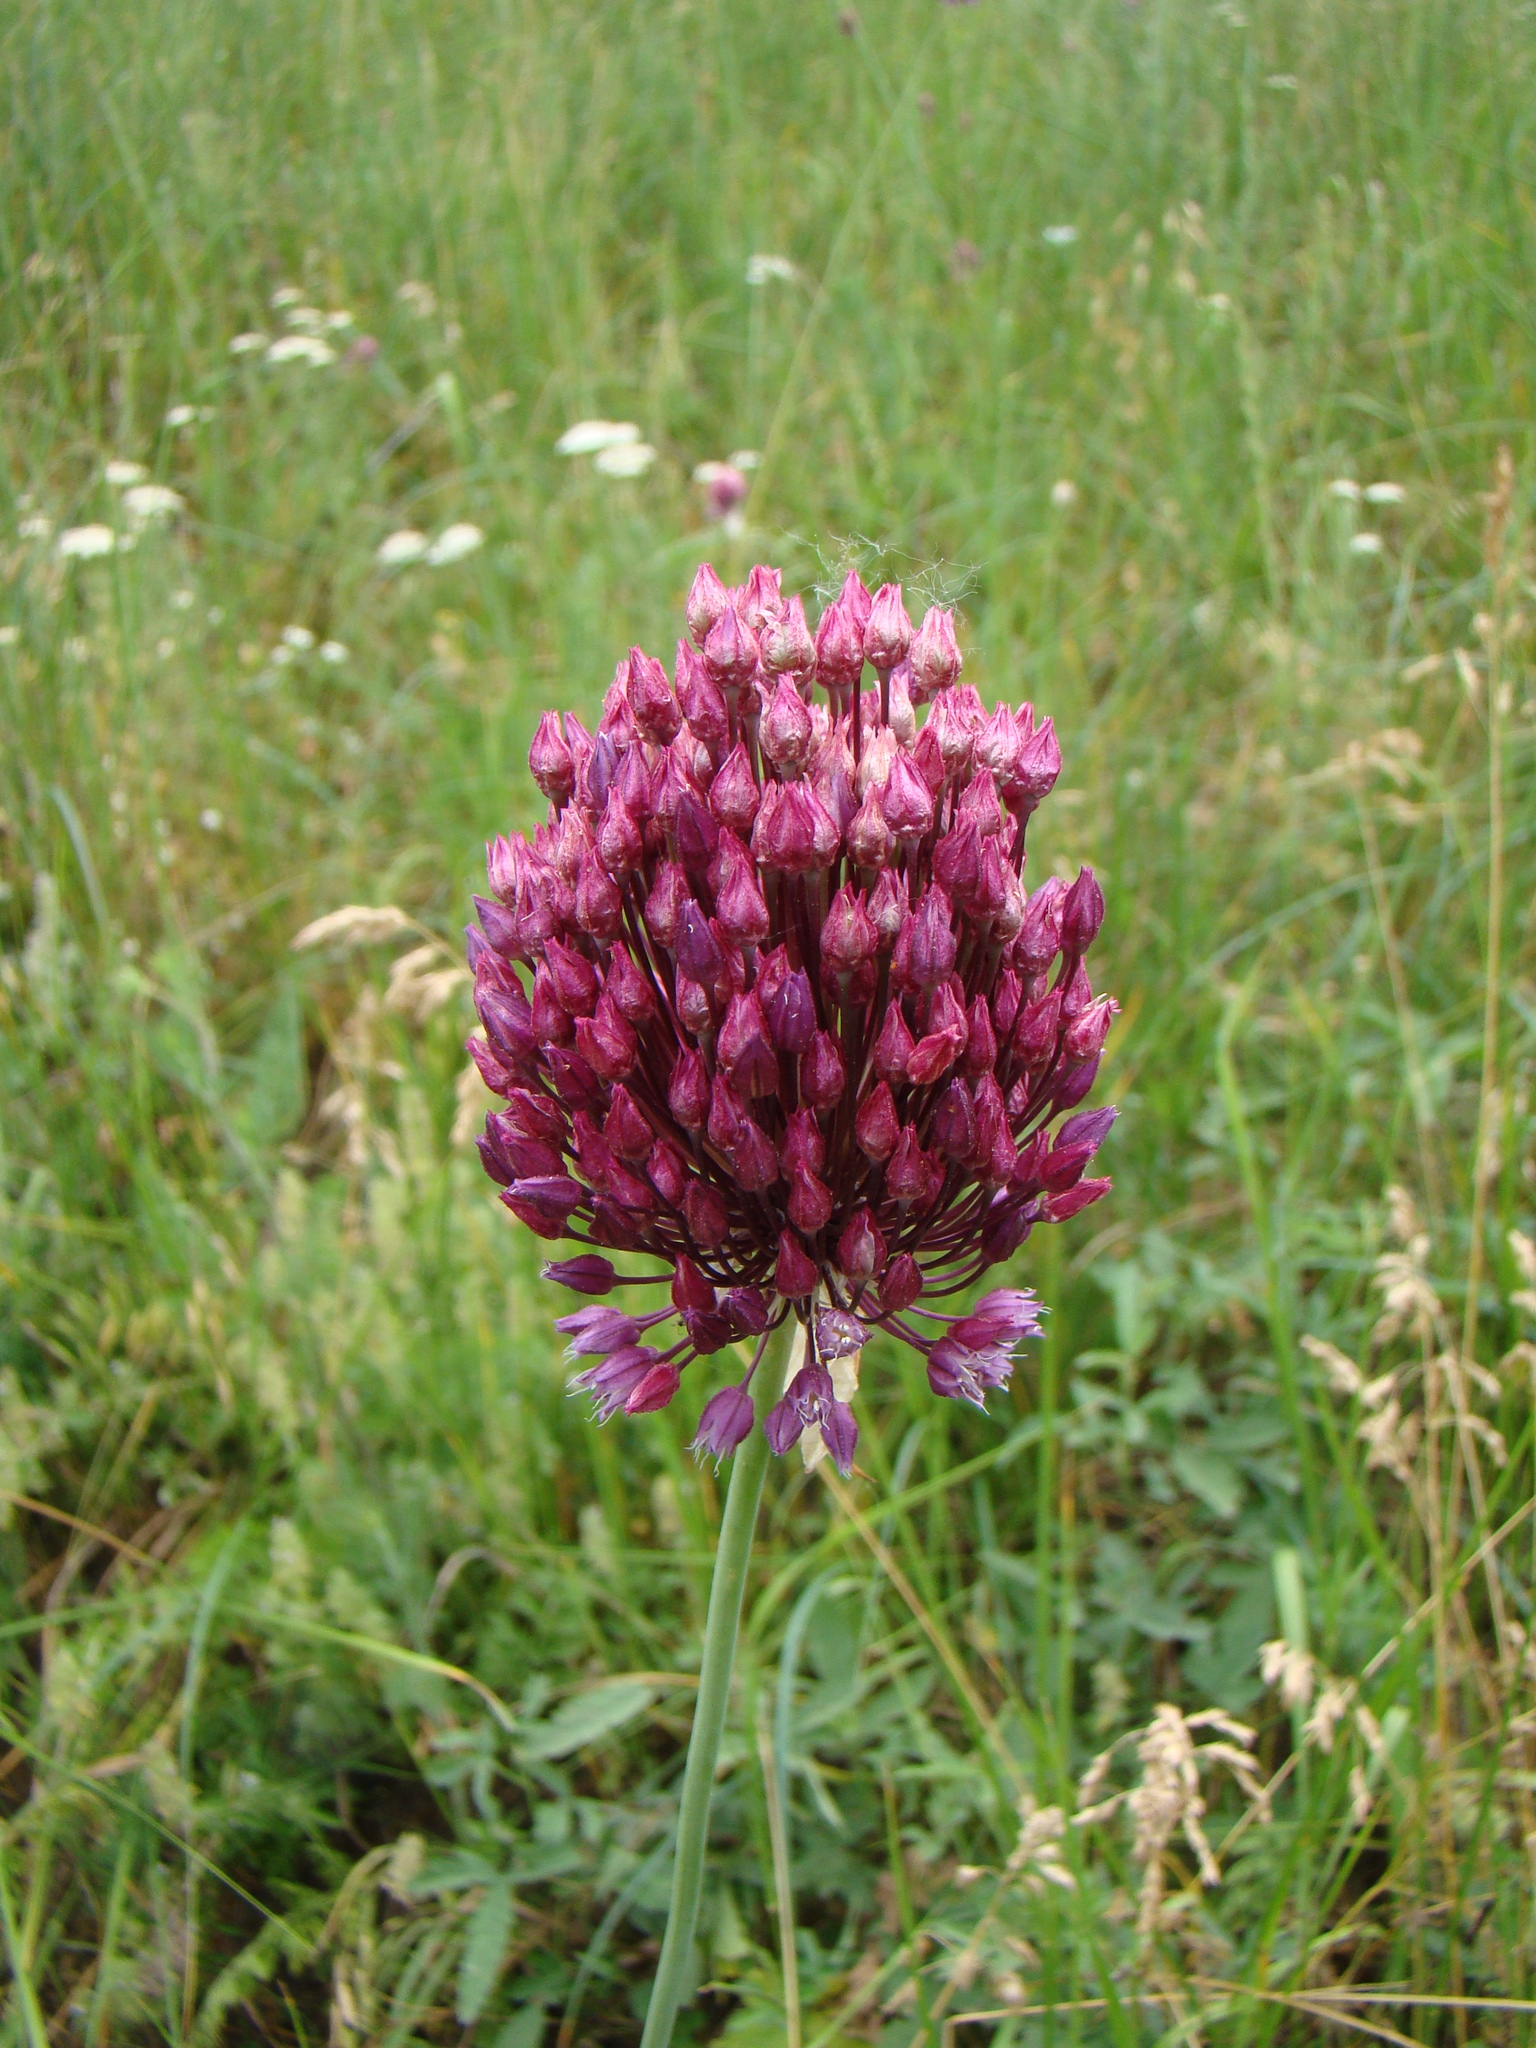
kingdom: Plantae
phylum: Tracheophyta
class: Liliopsida
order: Asparagales
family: Amaryllidaceae
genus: Allium
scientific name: Allium rotundum
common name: Sand leek
